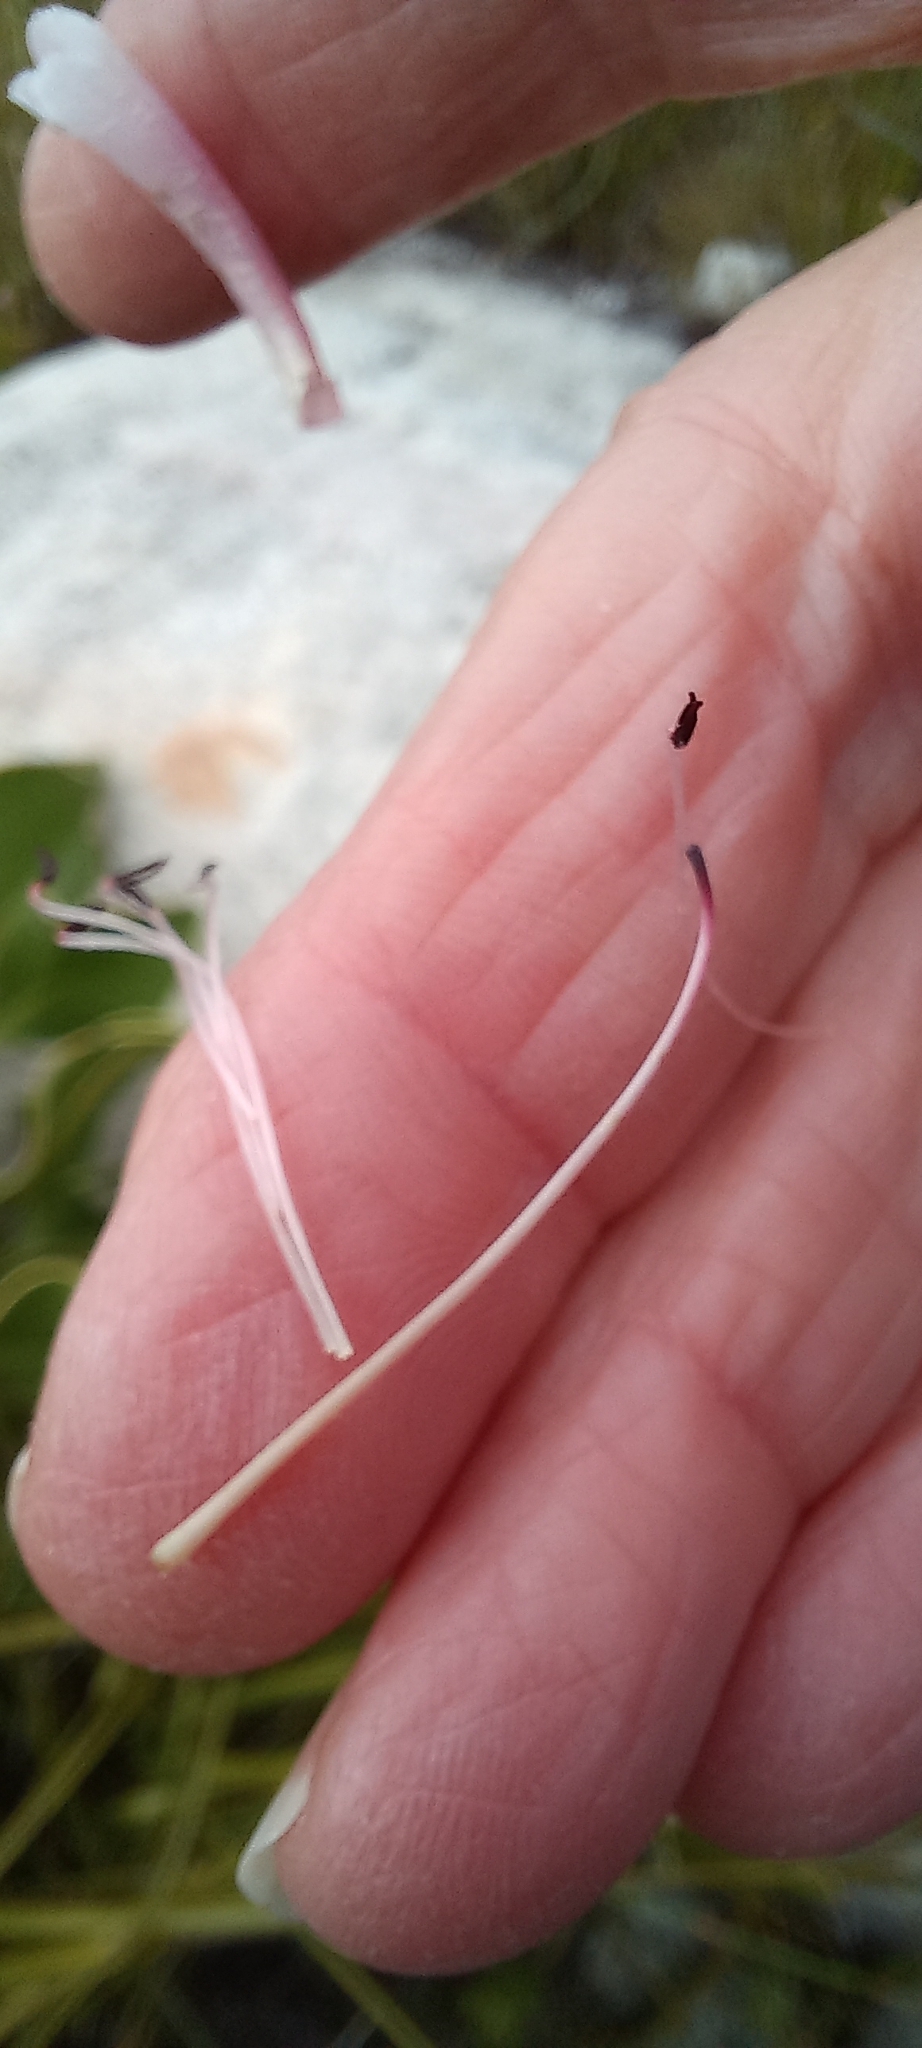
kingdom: Plantae
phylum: Tracheophyta
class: Magnoliopsida
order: Ericales
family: Ericaceae
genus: Erica
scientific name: Erica thomae
